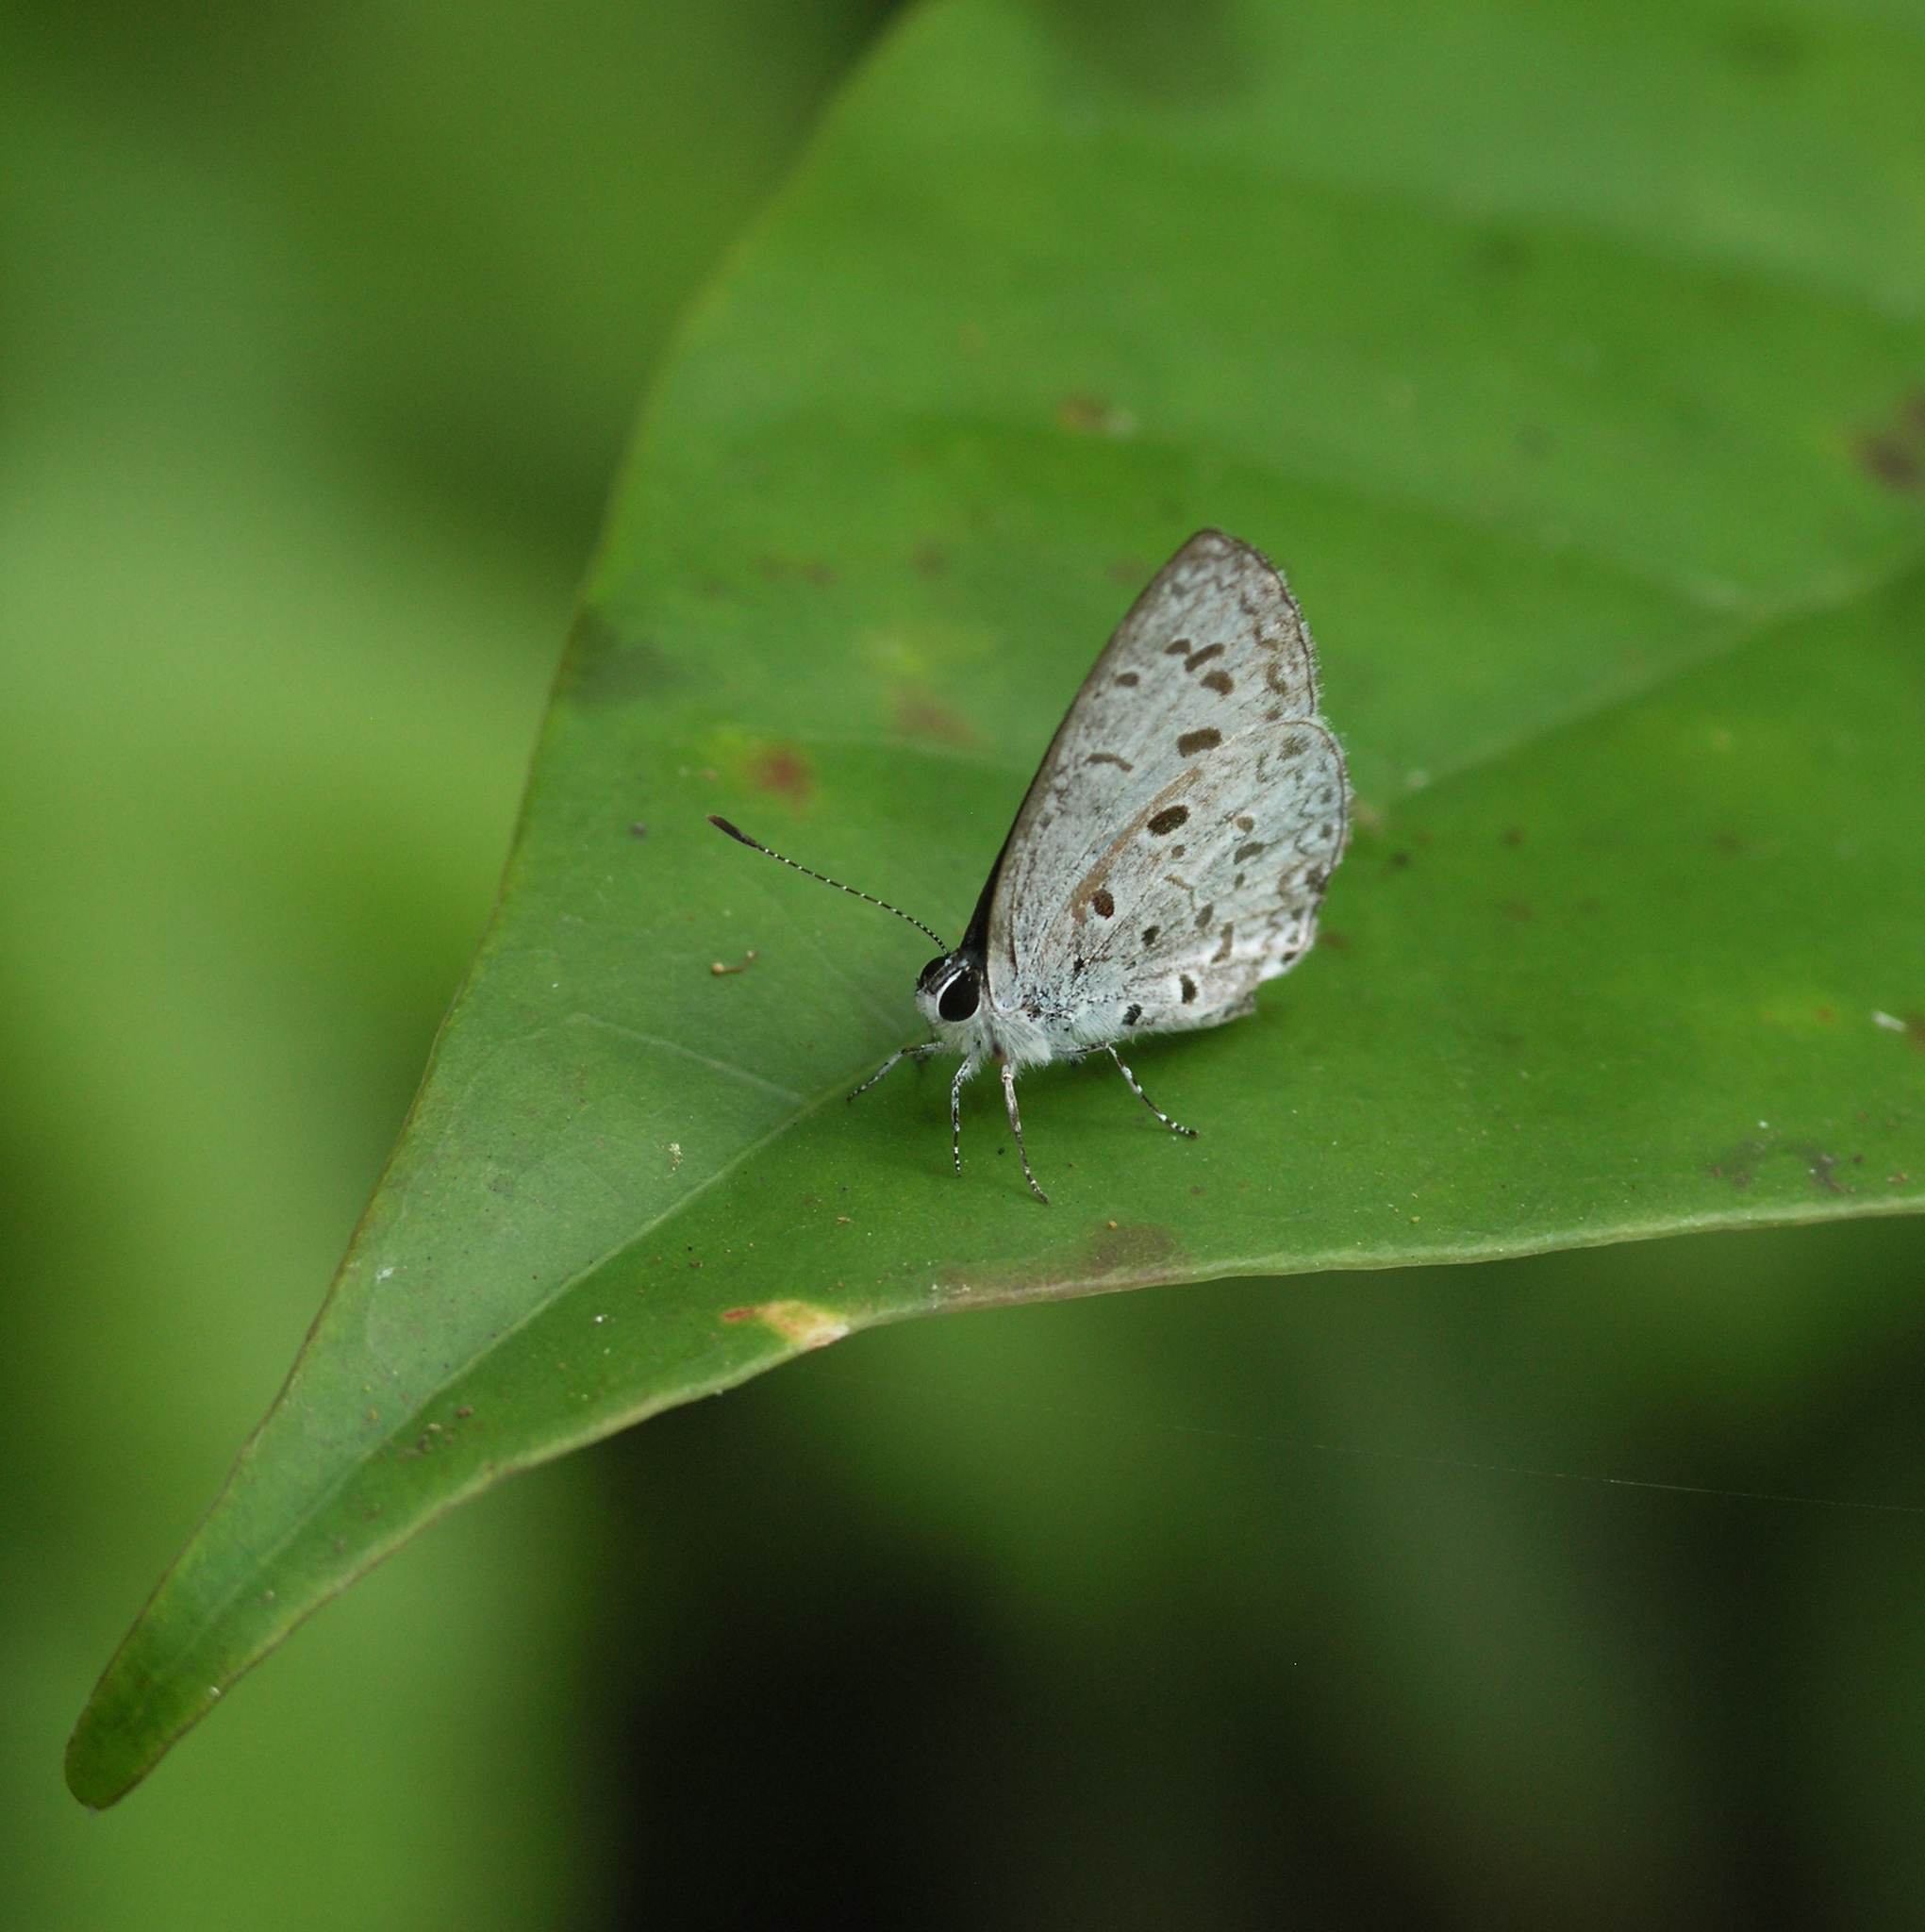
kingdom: Animalia
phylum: Arthropoda
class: Insecta
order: Lepidoptera
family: Lycaenidae
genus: Acytolepis
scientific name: Acytolepis puspa
